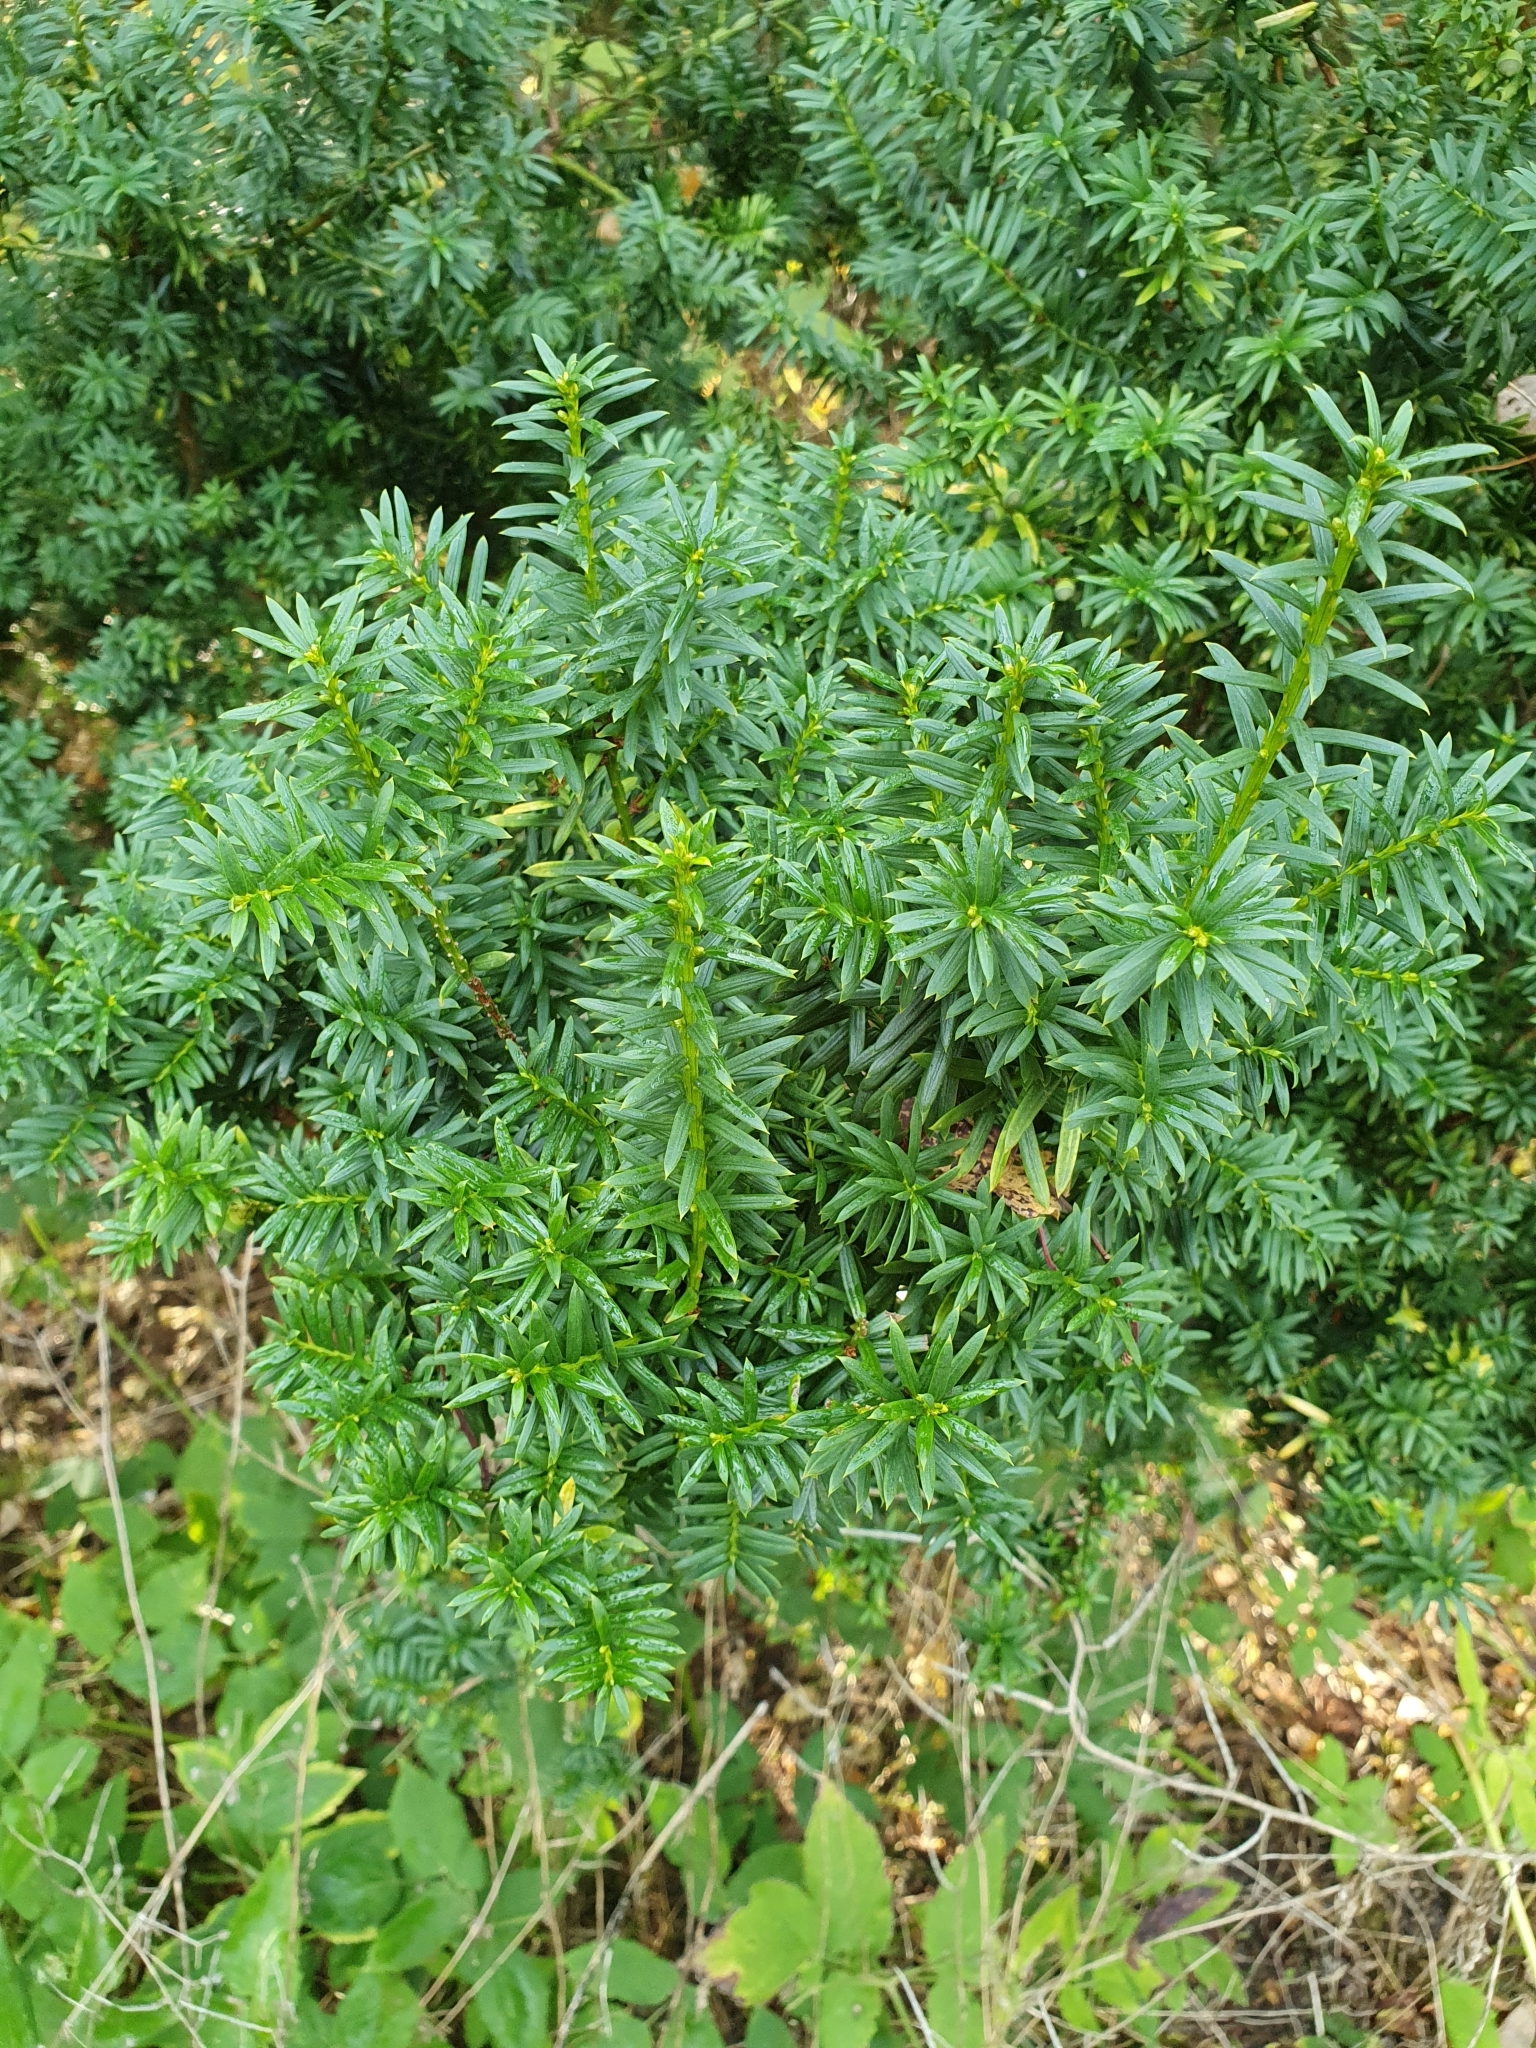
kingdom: Plantae
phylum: Tracheophyta
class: Pinopsida
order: Pinales
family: Taxaceae
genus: Taxus
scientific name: Taxus baccata
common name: Yew
